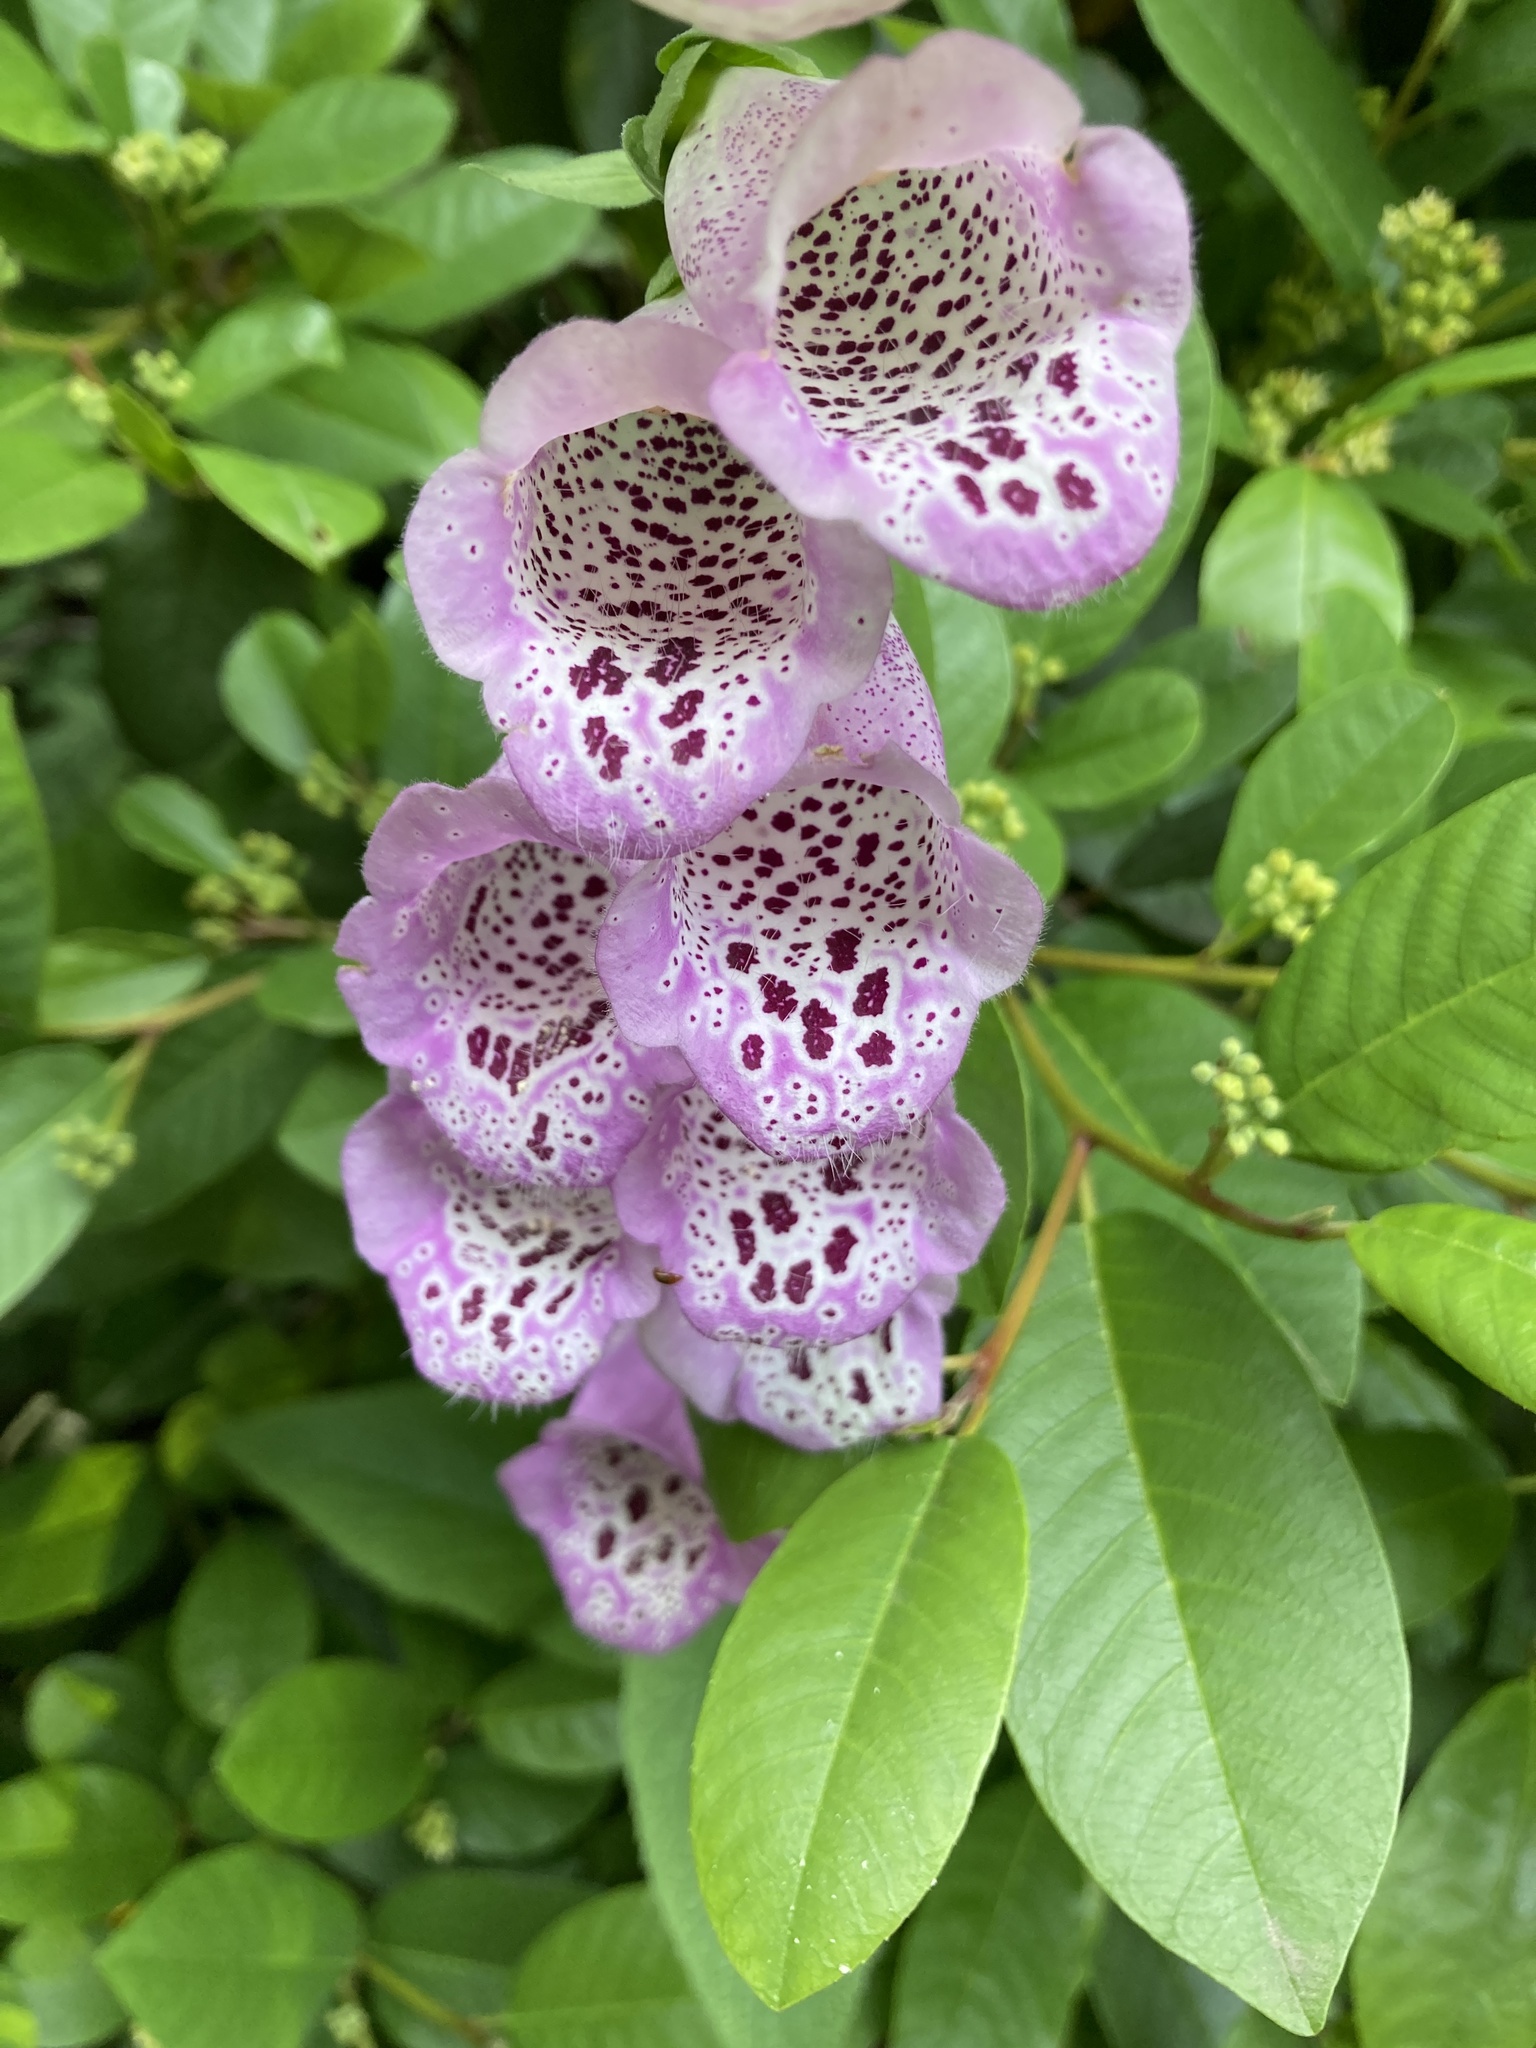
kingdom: Plantae
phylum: Tracheophyta
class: Magnoliopsida
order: Lamiales
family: Plantaginaceae
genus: Digitalis
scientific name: Digitalis purpurea
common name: Foxglove
